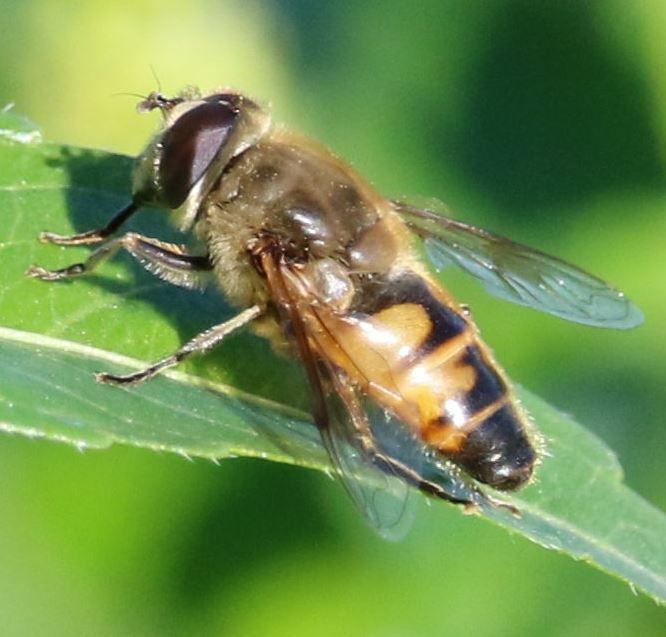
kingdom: Animalia
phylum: Arthropoda
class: Insecta
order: Diptera
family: Syrphidae
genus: Eristalis
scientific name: Eristalis tenax
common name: Drone fly
